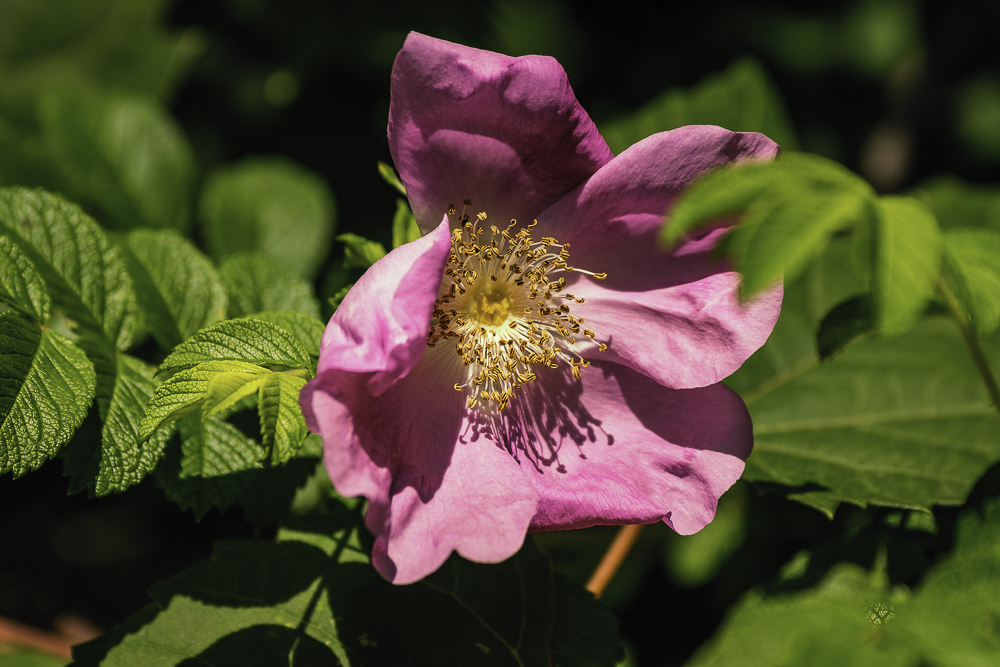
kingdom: Plantae
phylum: Tracheophyta
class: Magnoliopsida
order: Rosales
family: Rosaceae
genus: Rosa
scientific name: Rosa rugosa
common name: Japanese rose
